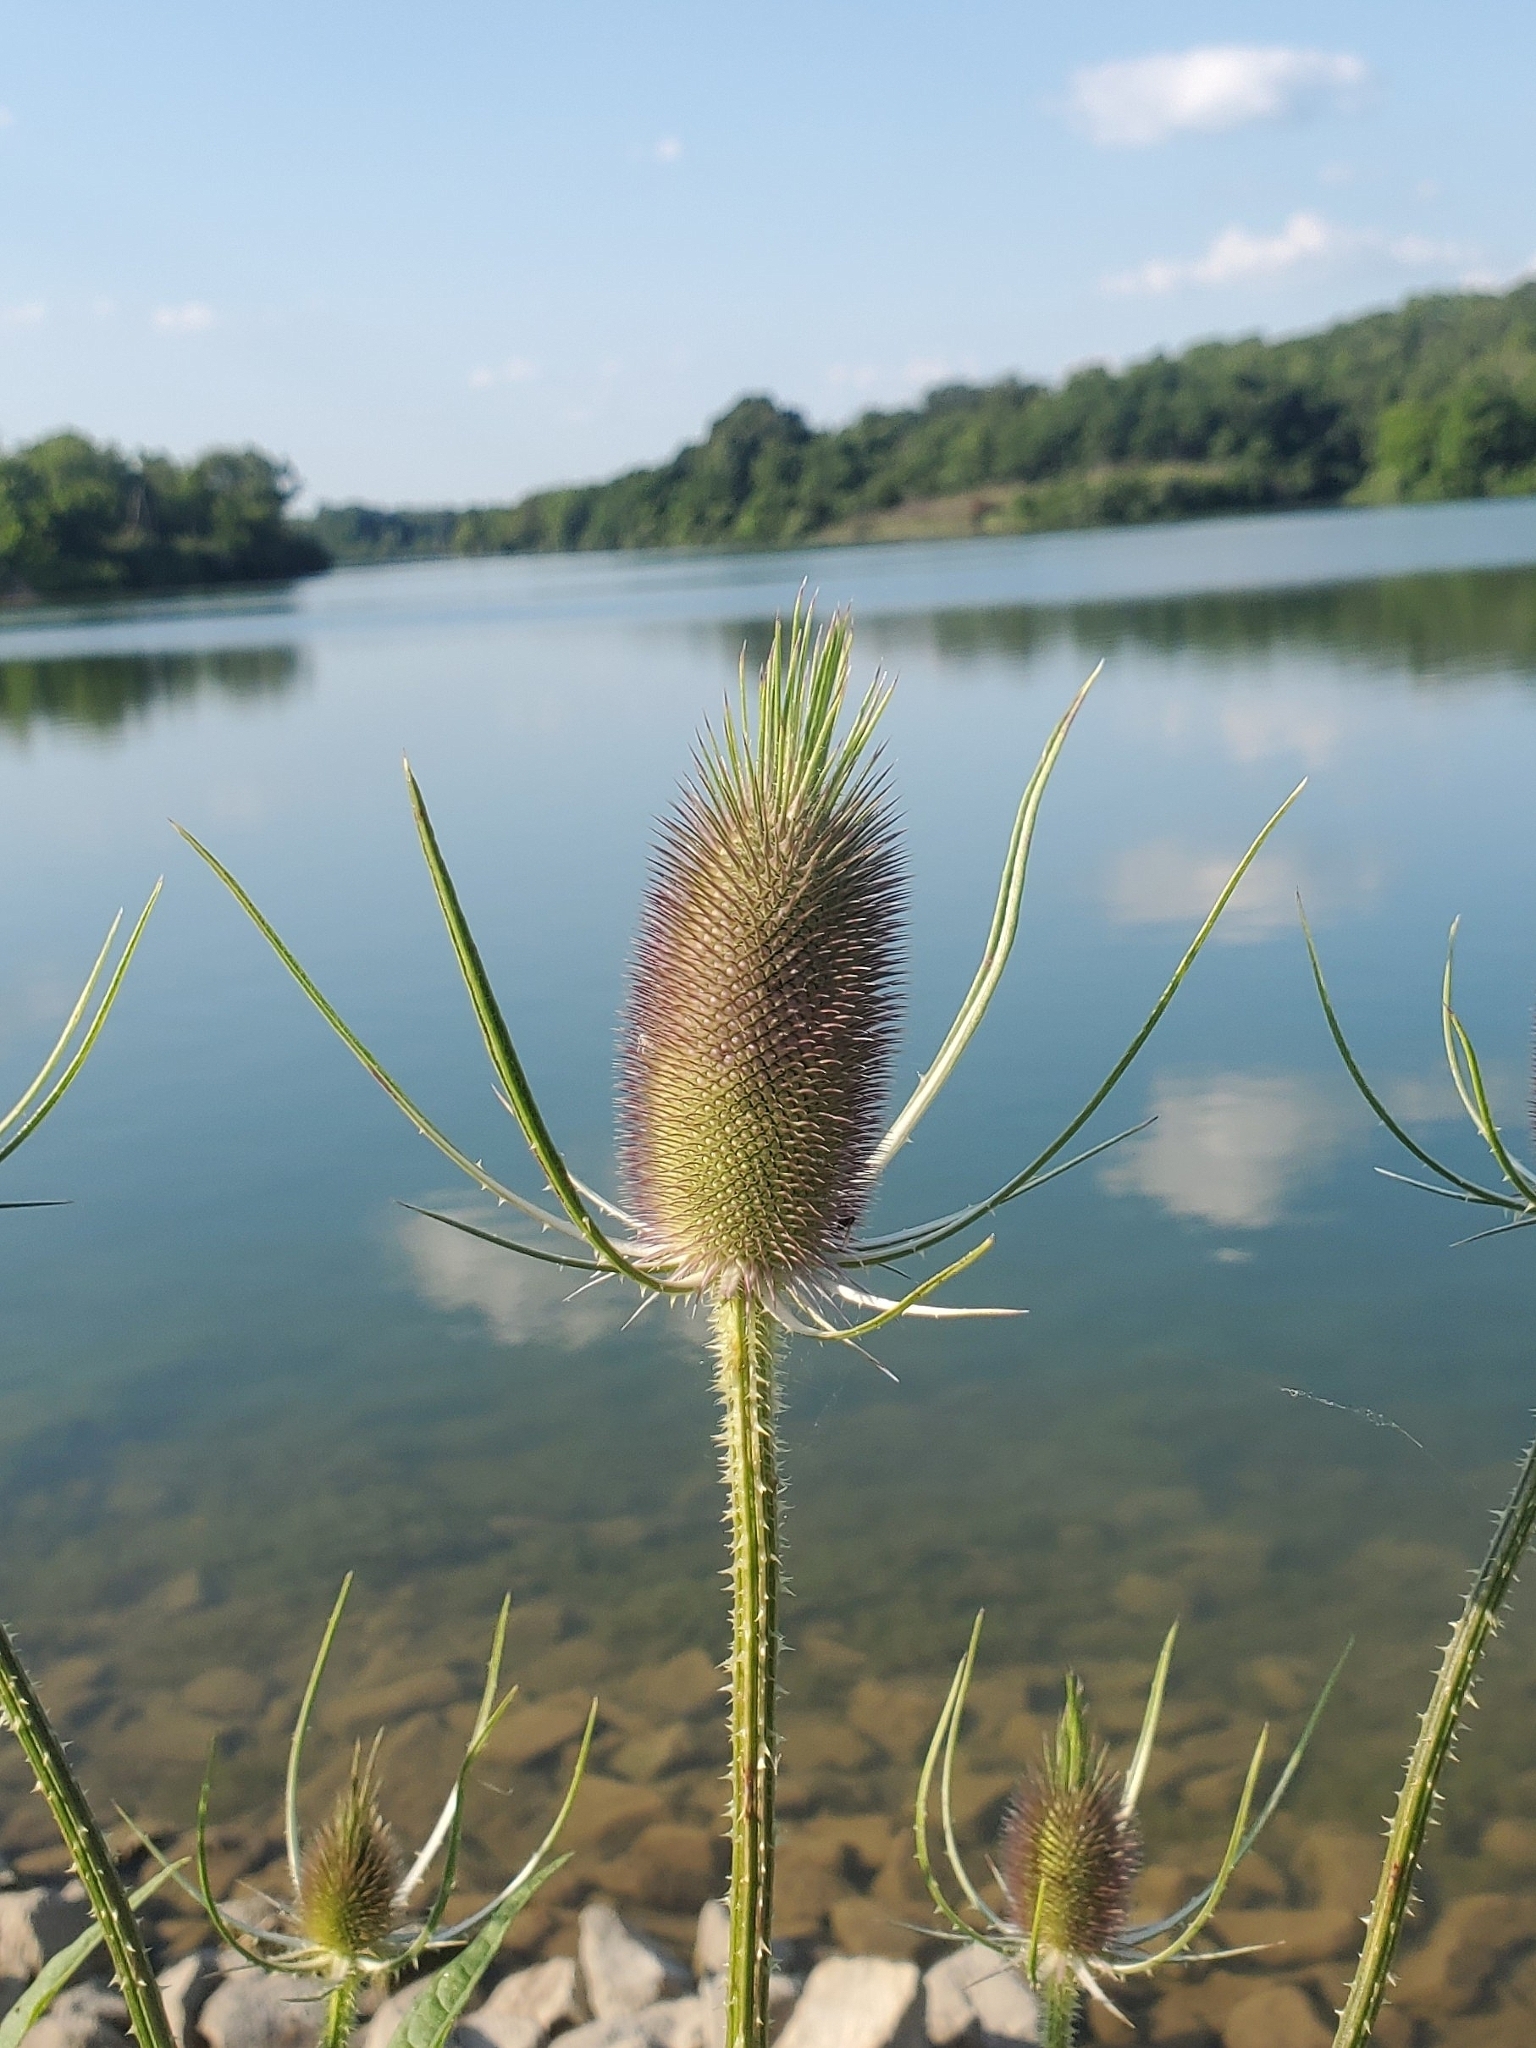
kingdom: Plantae
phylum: Tracheophyta
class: Magnoliopsida
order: Dipsacales
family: Caprifoliaceae
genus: Dipsacus
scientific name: Dipsacus fullonum
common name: Teasel
